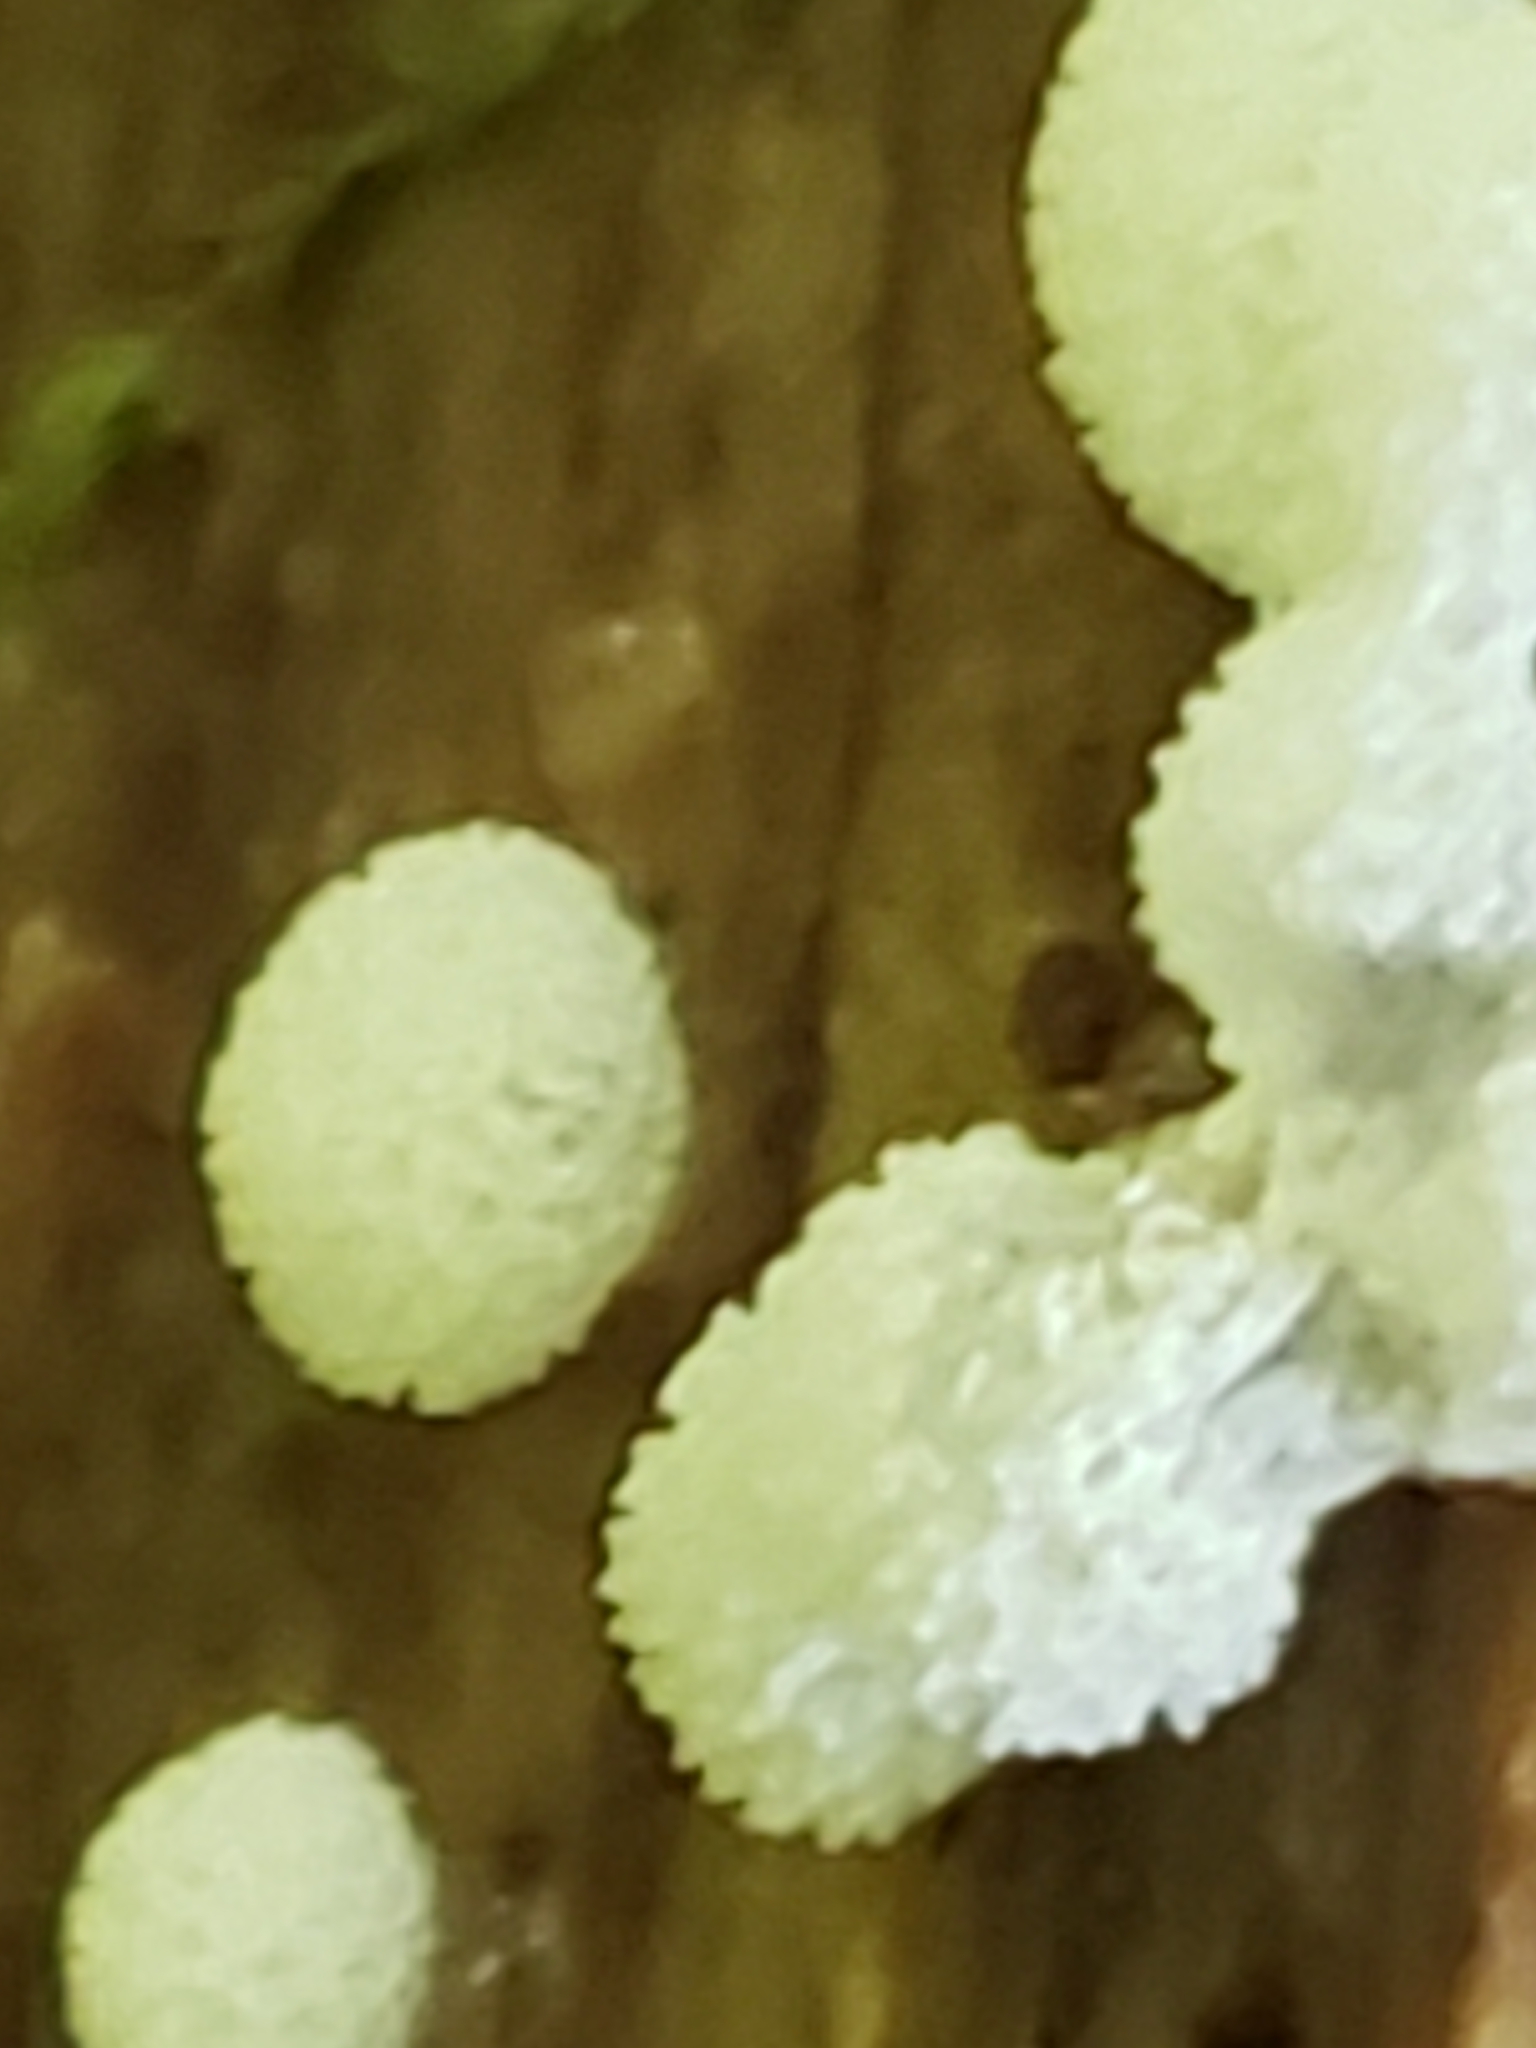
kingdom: Protozoa
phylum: Mycetozoa
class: Protosteliomycetes
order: Ceratiomyxales
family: Ceratiomyxaceae
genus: Ceratiomyxa
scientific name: Ceratiomyxa fruticulosa
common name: Honeycomb coral slime mold
